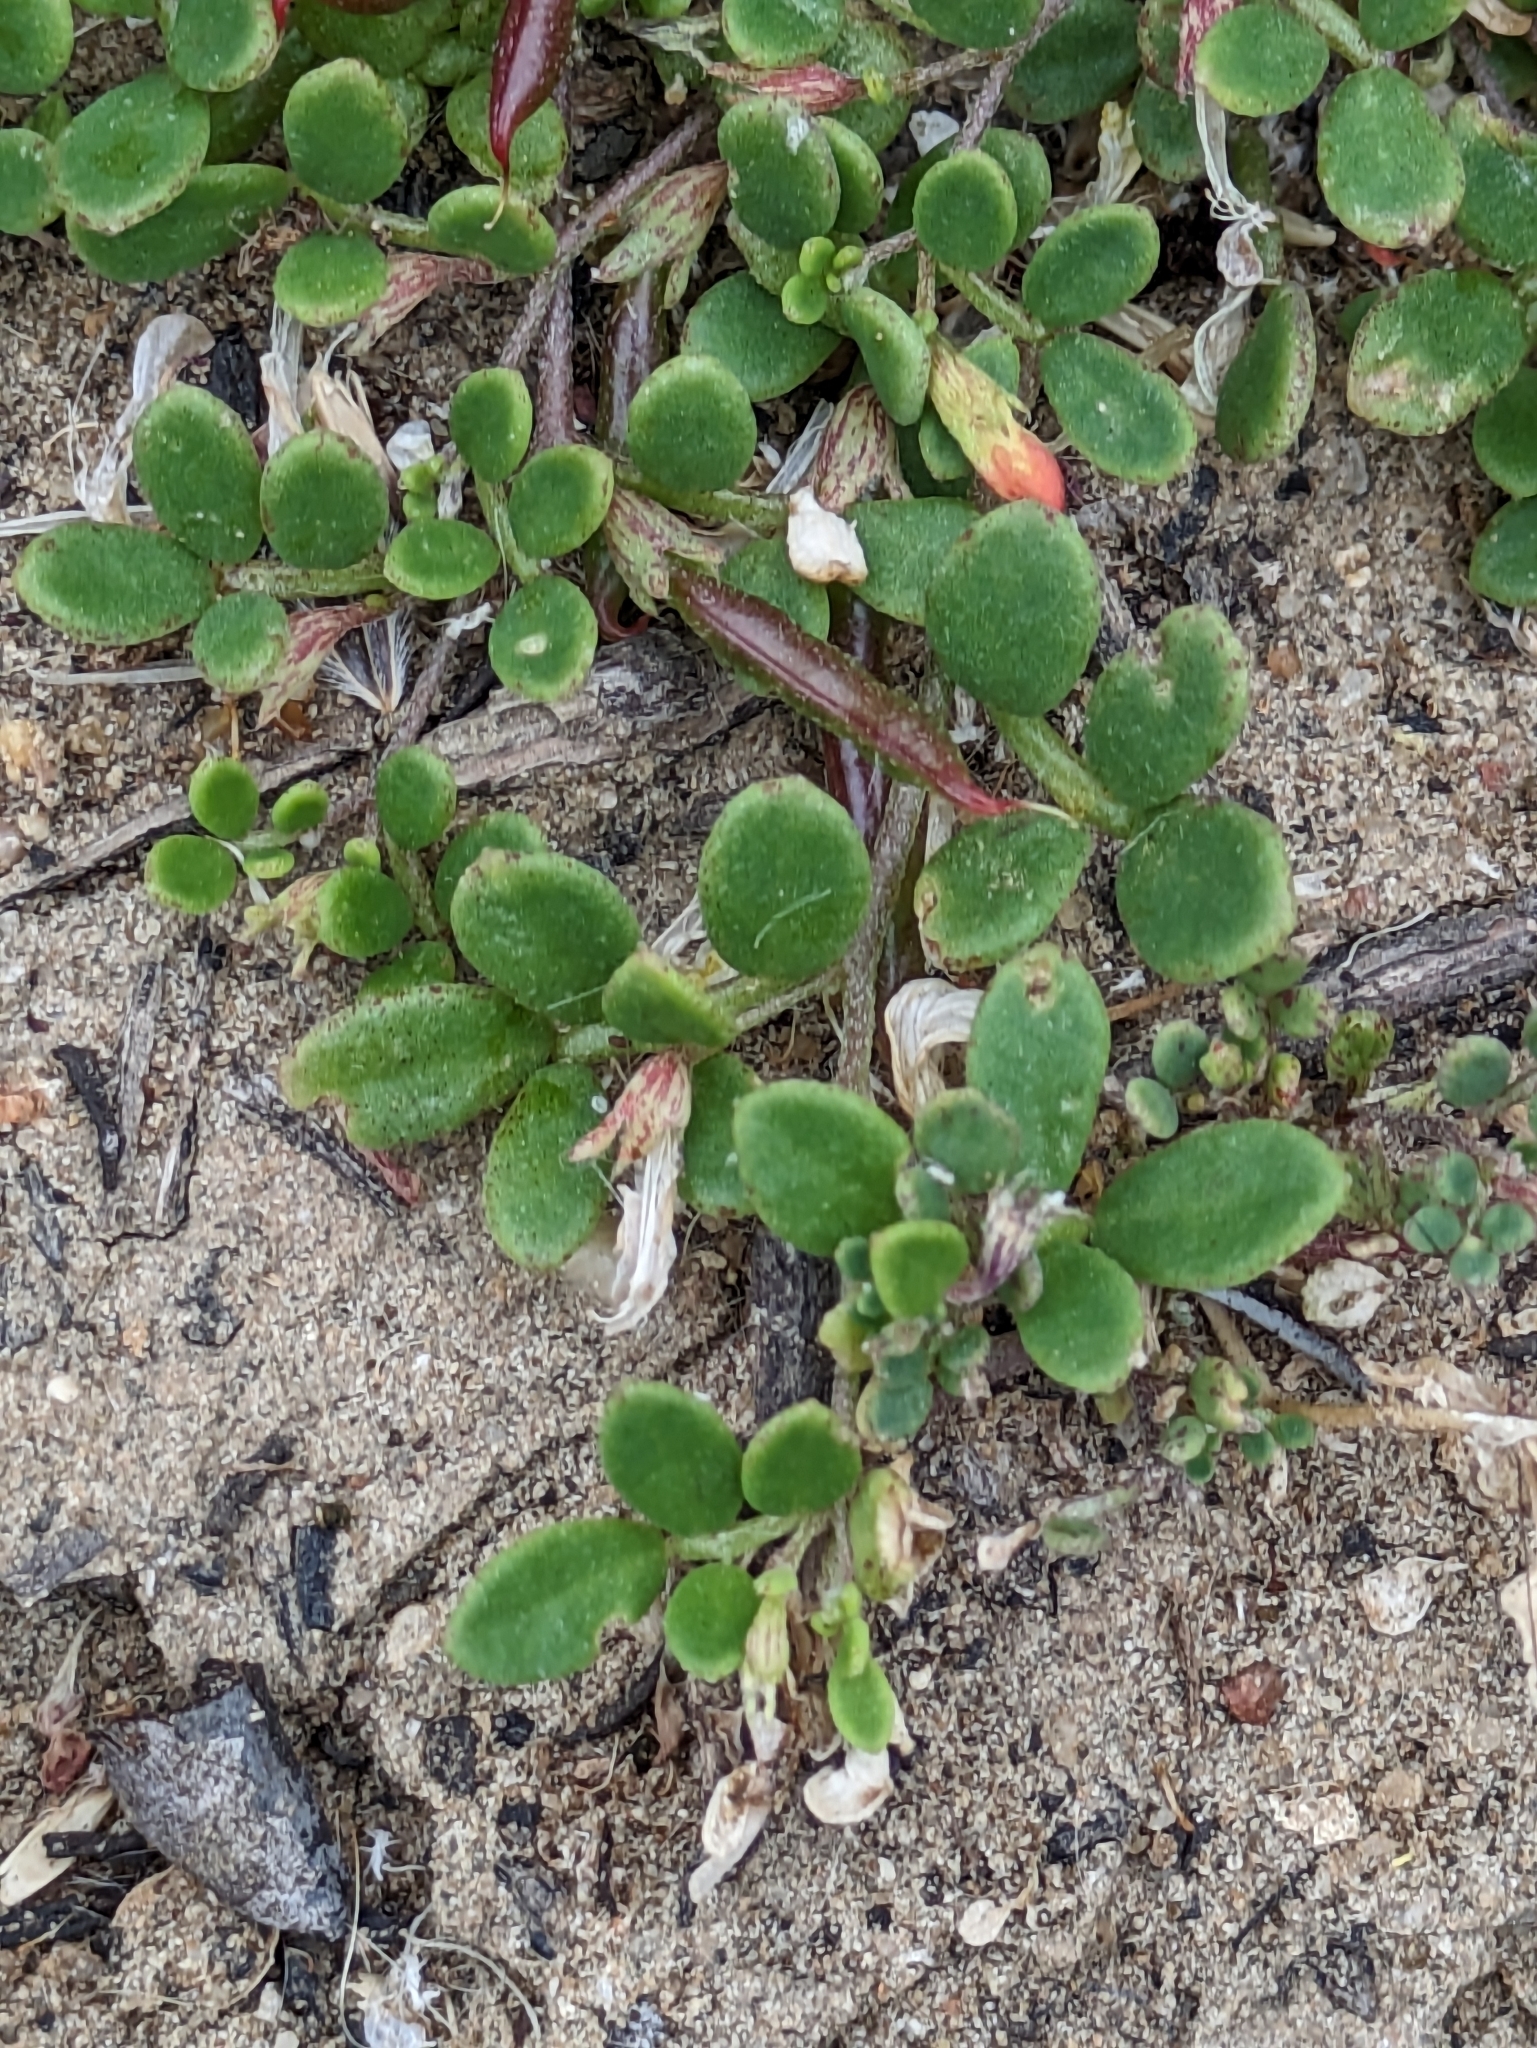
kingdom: Plantae
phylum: Tracheophyta
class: Magnoliopsida
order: Fabales
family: Fabaceae
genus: Acmispon
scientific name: Acmispon maritimus
